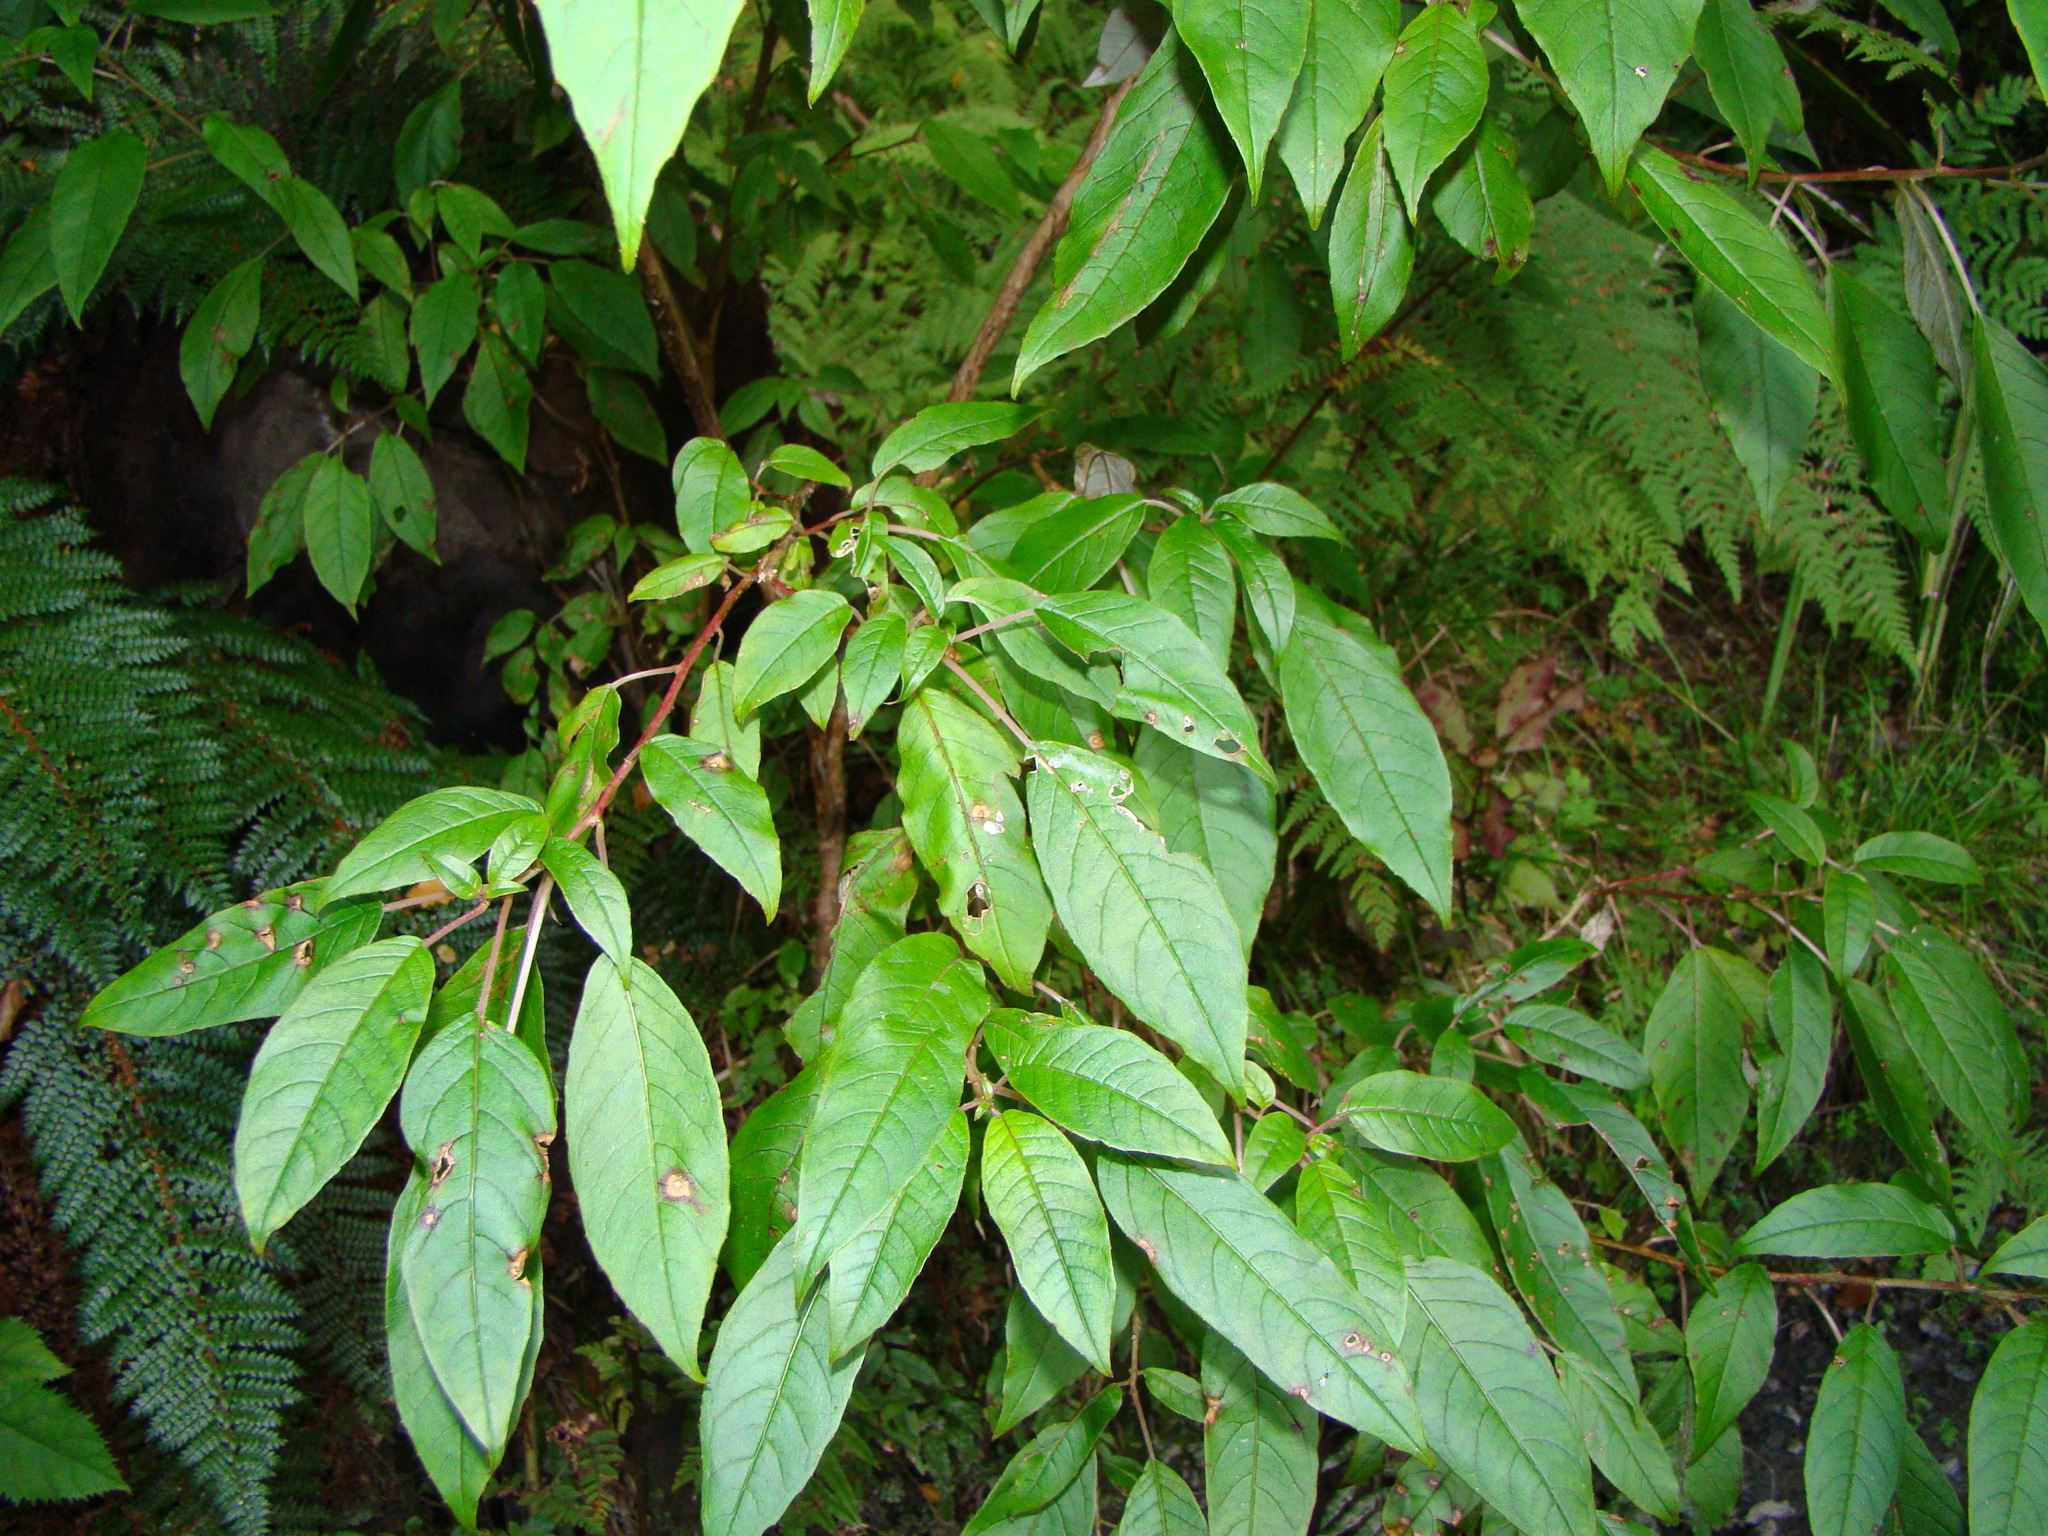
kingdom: Plantae
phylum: Tracheophyta
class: Magnoliopsida
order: Myrtales
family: Onagraceae
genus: Fuchsia
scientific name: Fuchsia excorticata
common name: Tree fuchsia
